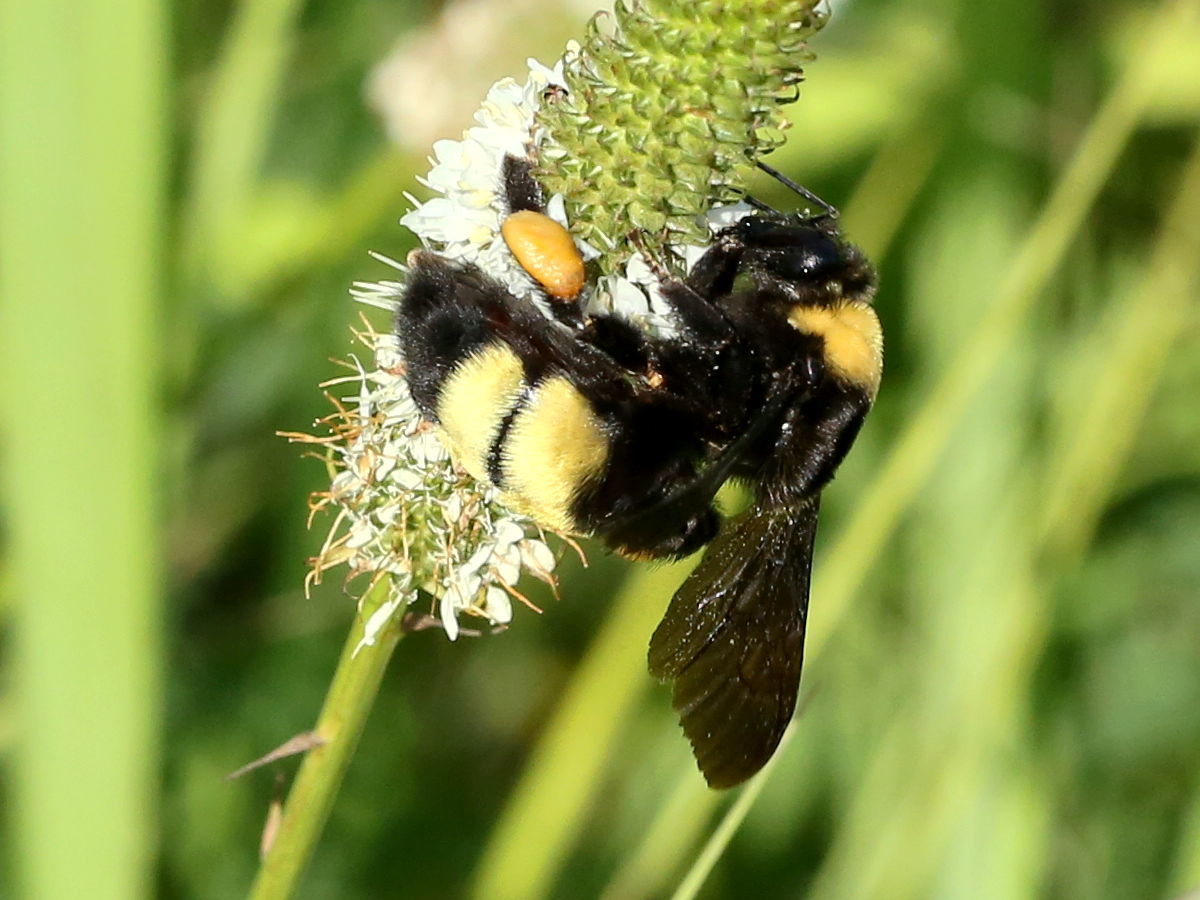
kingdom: Animalia
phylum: Arthropoda
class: Insecta
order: Hymenoptera
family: Apidae
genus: Bombus
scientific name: Bombus auricomus
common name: Black and gold bumble bee
